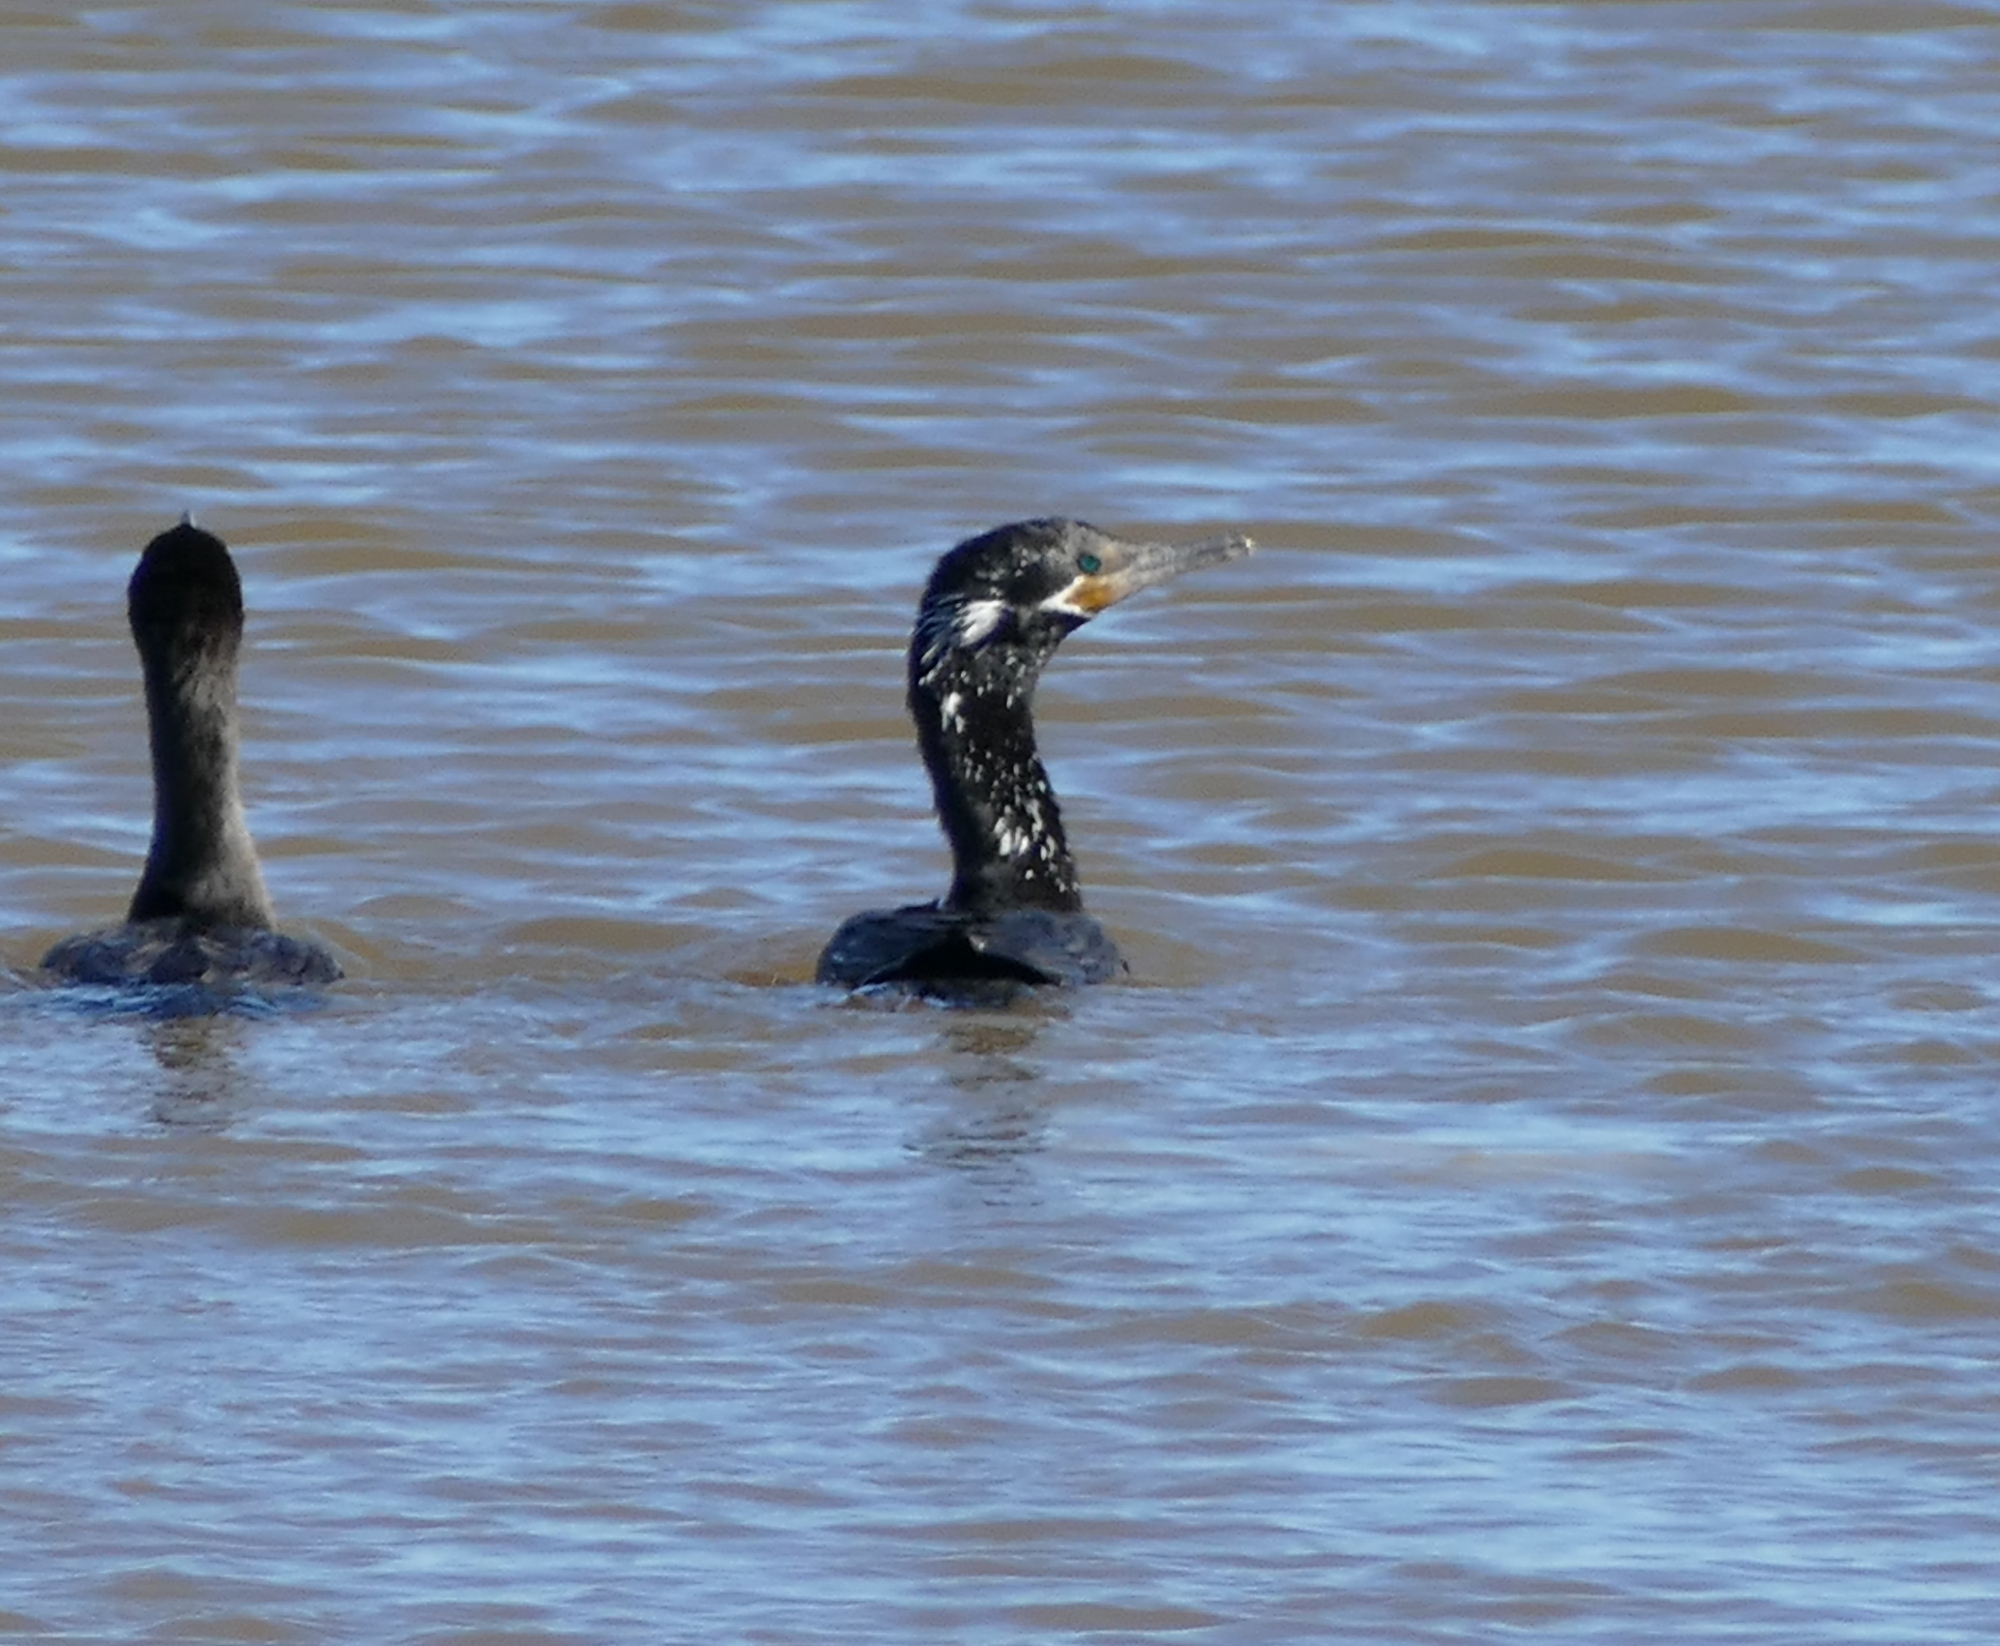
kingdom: Animalia
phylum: Chordata
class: Aves
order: Suliformes
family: Phalacrocoracidae
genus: Phalacrocorax
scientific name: Phalacrocorax brasilianus
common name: Neotropic cormorant
